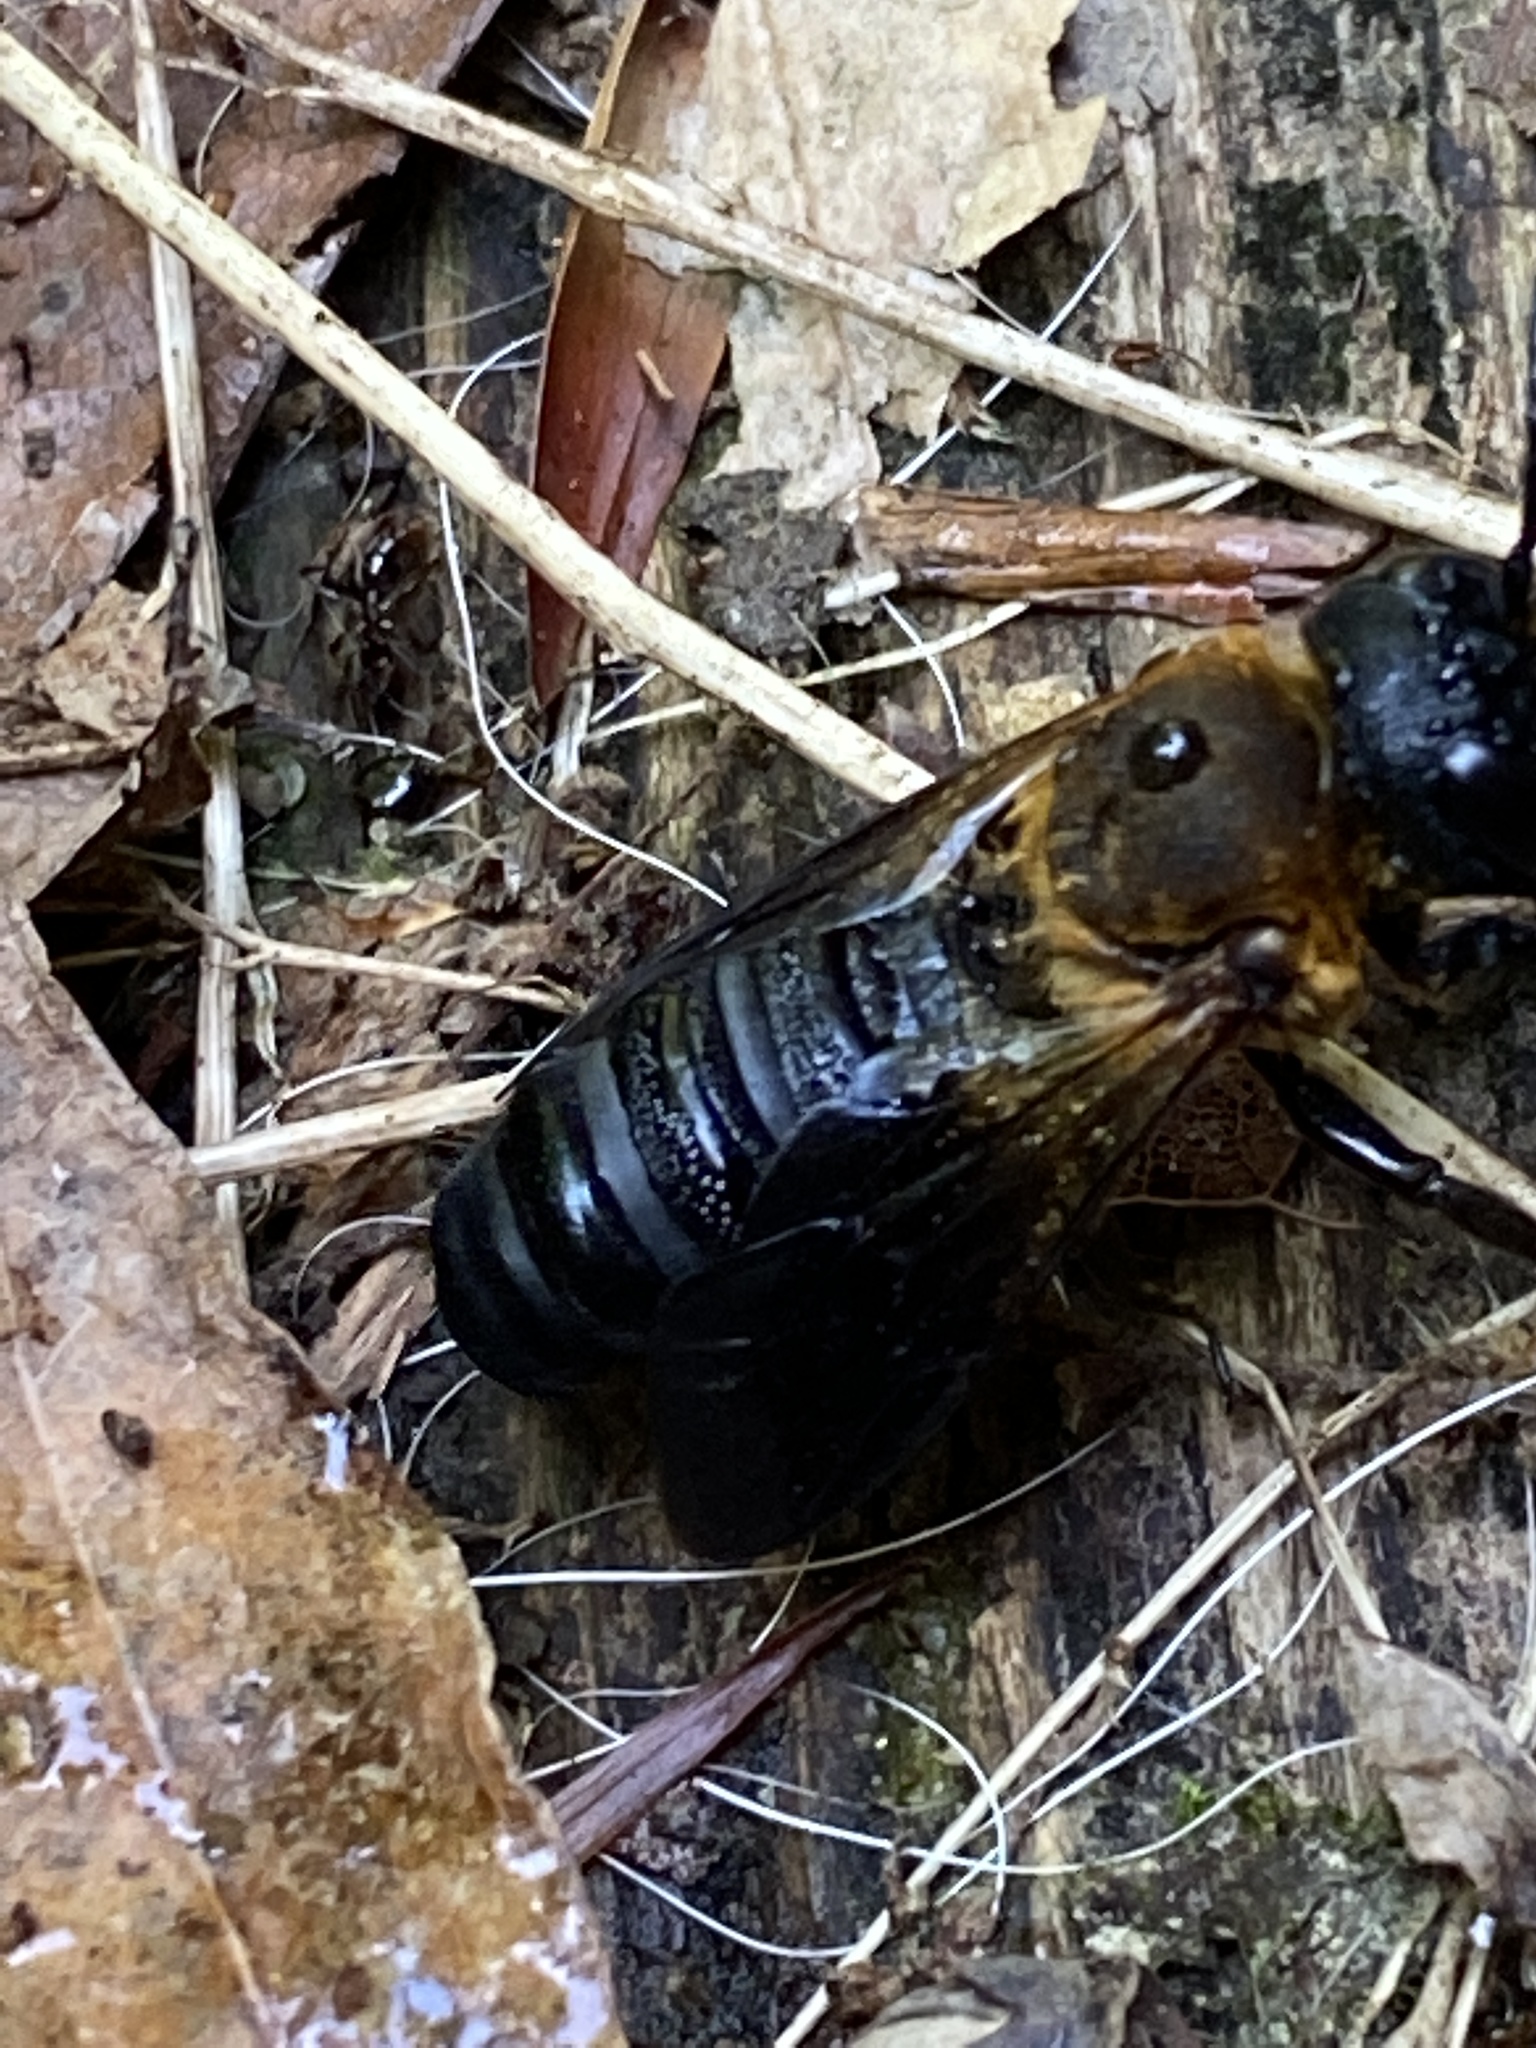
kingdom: Animalia
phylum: Arthropoda
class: Insecta
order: Hymenoptera
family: Megachilidae
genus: Megachile
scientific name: Megachile sculpturalis
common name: Sculptured resin bee
